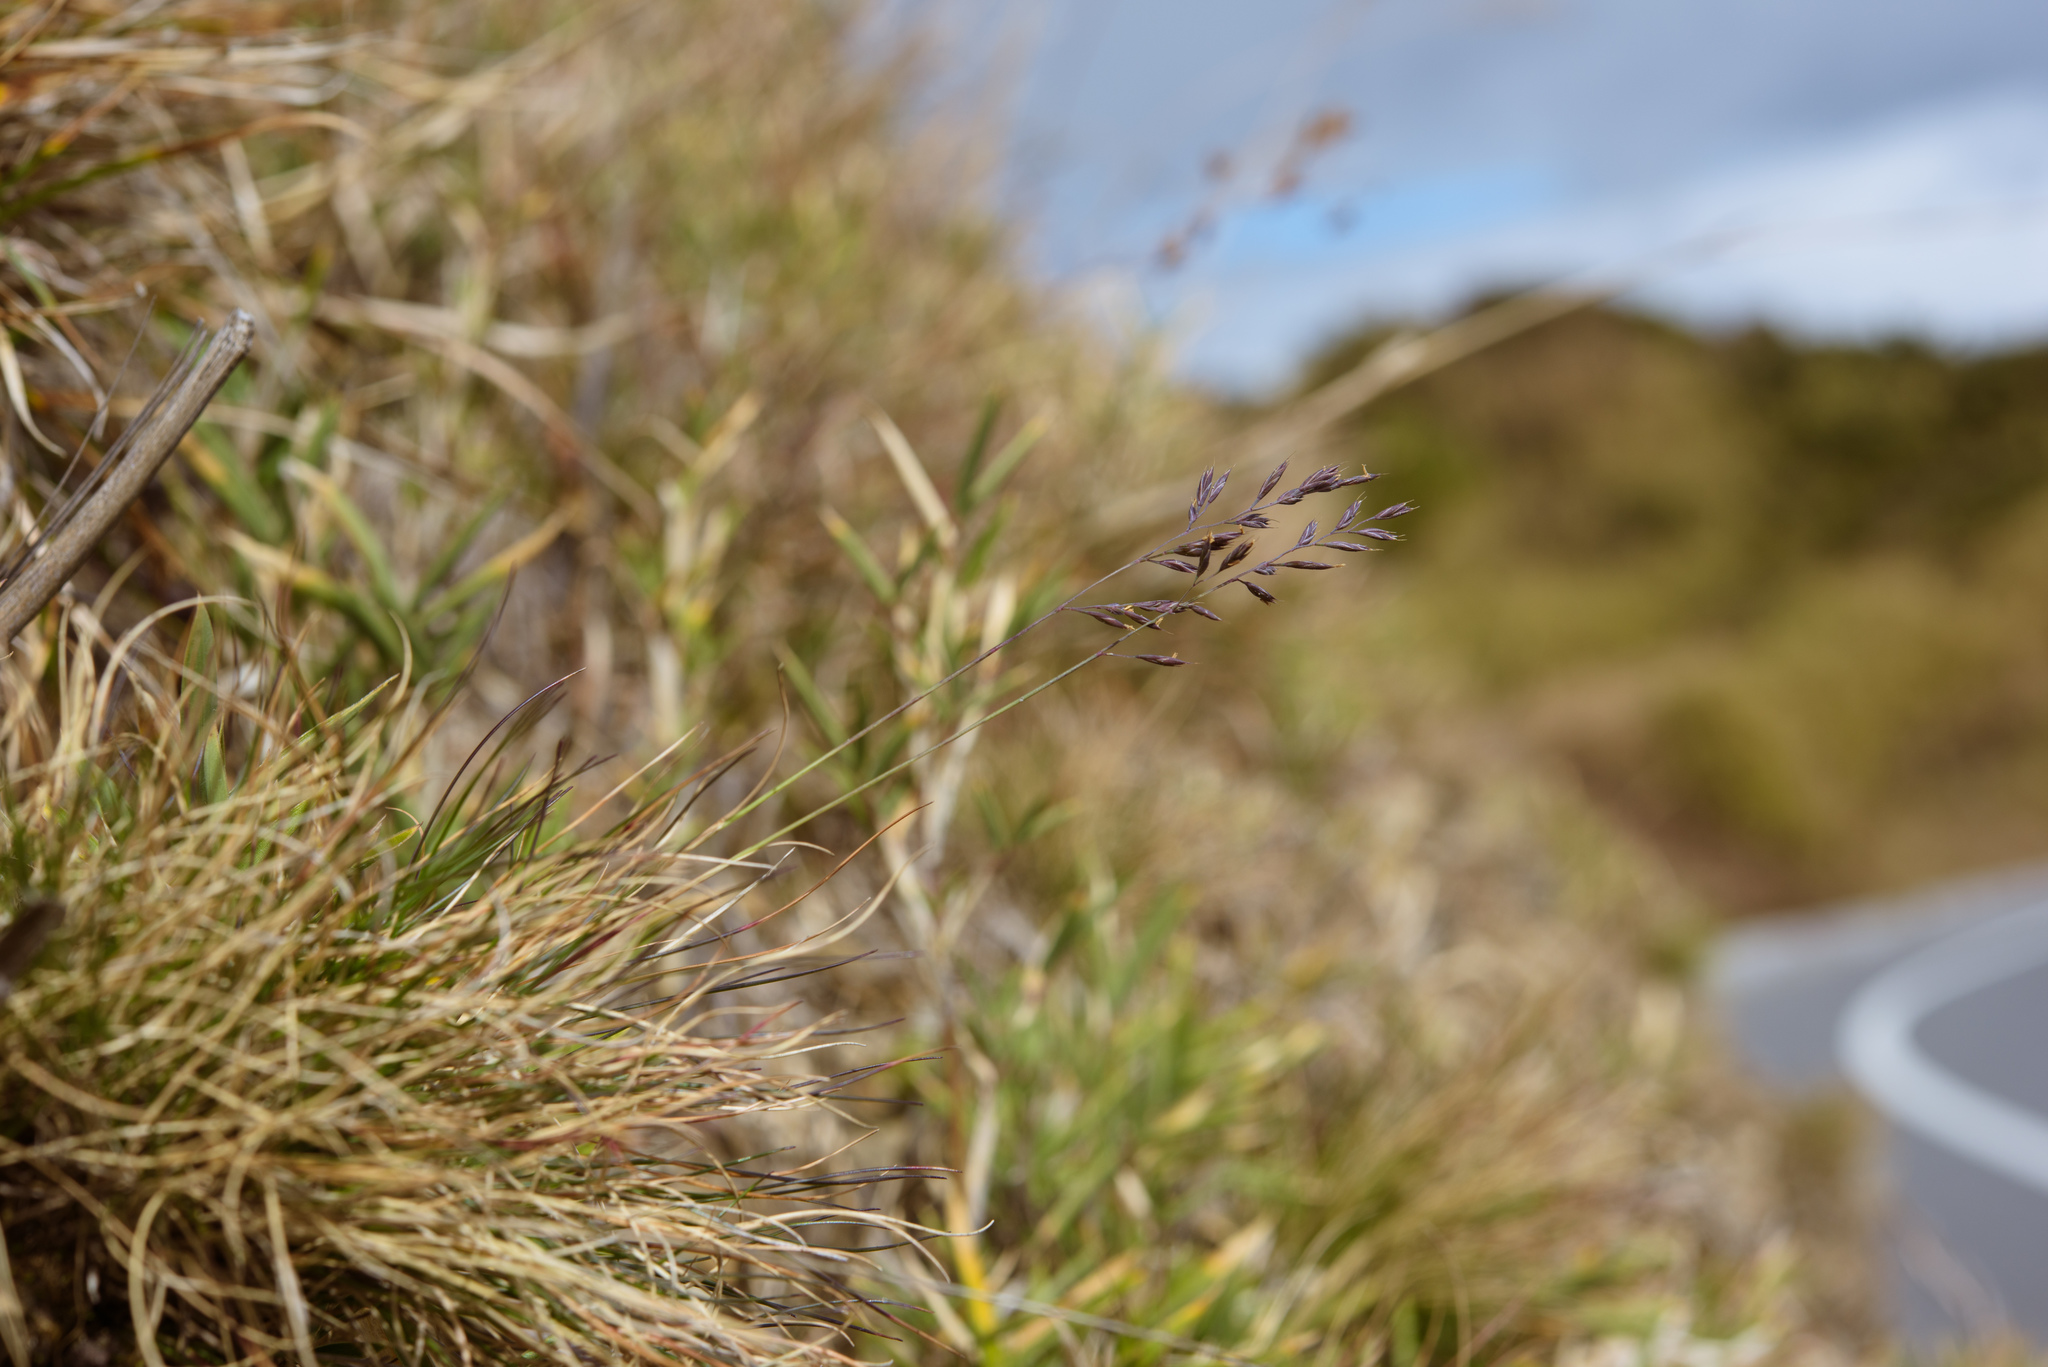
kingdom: Plantae
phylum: Tracheophyta
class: Liliopsida
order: Poales
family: Poaceae
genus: Festuca
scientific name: Festuca ovina
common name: Sheep fescue
